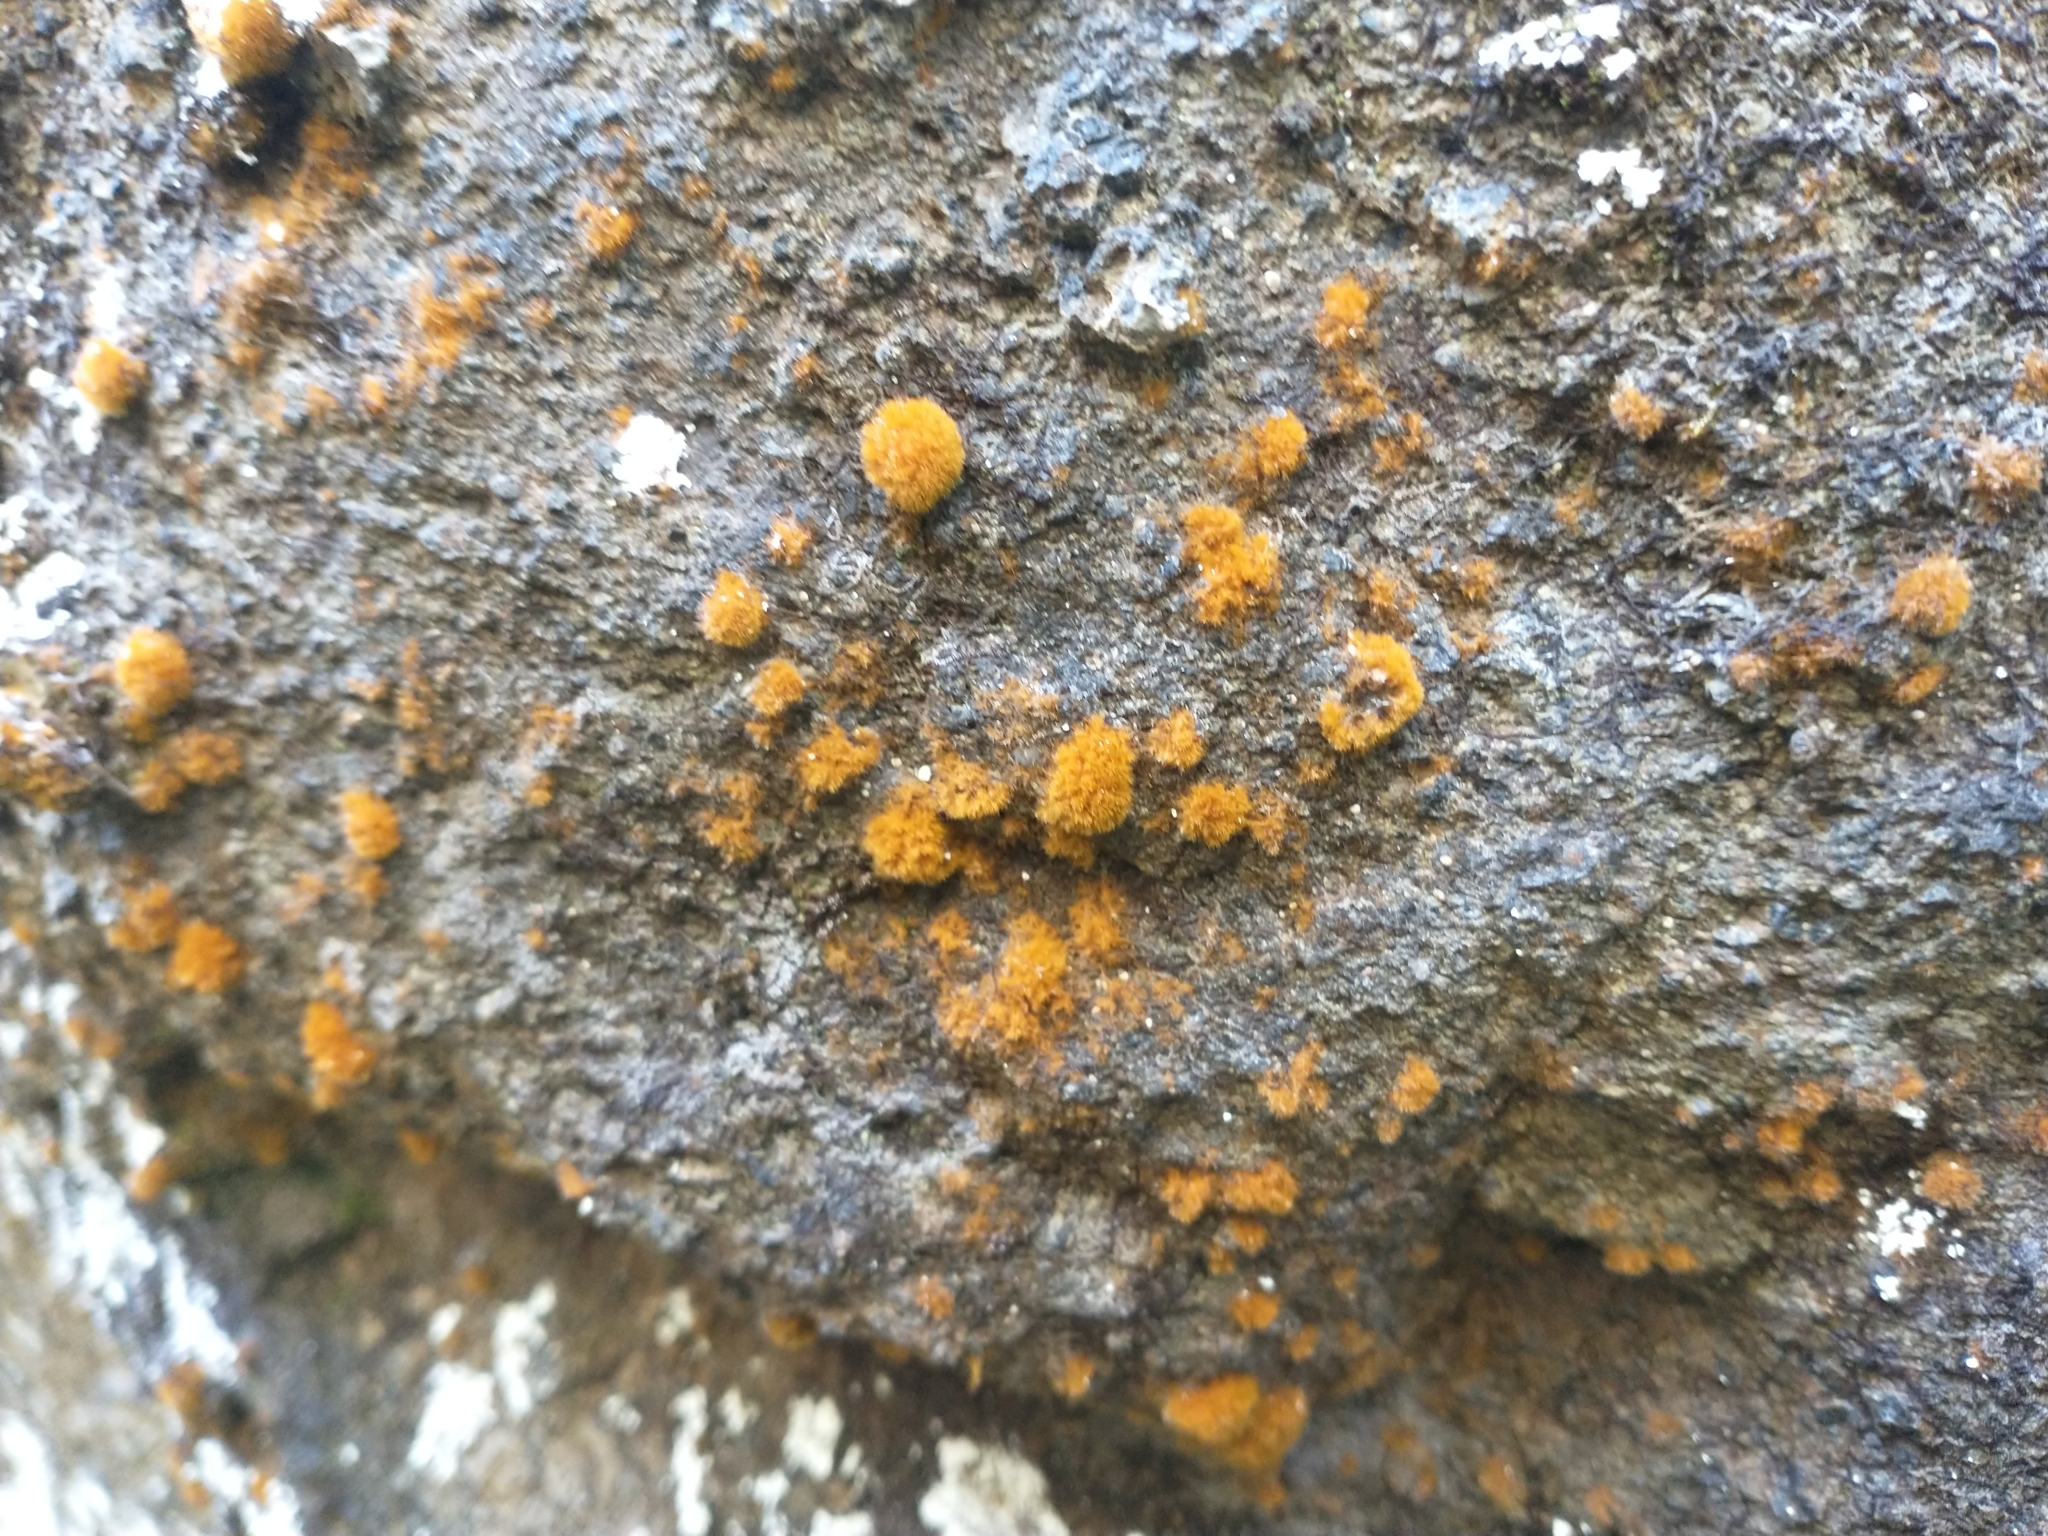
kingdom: Plantae
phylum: Chlorophyta
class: Ulvophyceae
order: Trentepohliales
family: Trentepohliaceae
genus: Trentepohlia
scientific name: Trentepohlia aurea
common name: Orange rock hair
